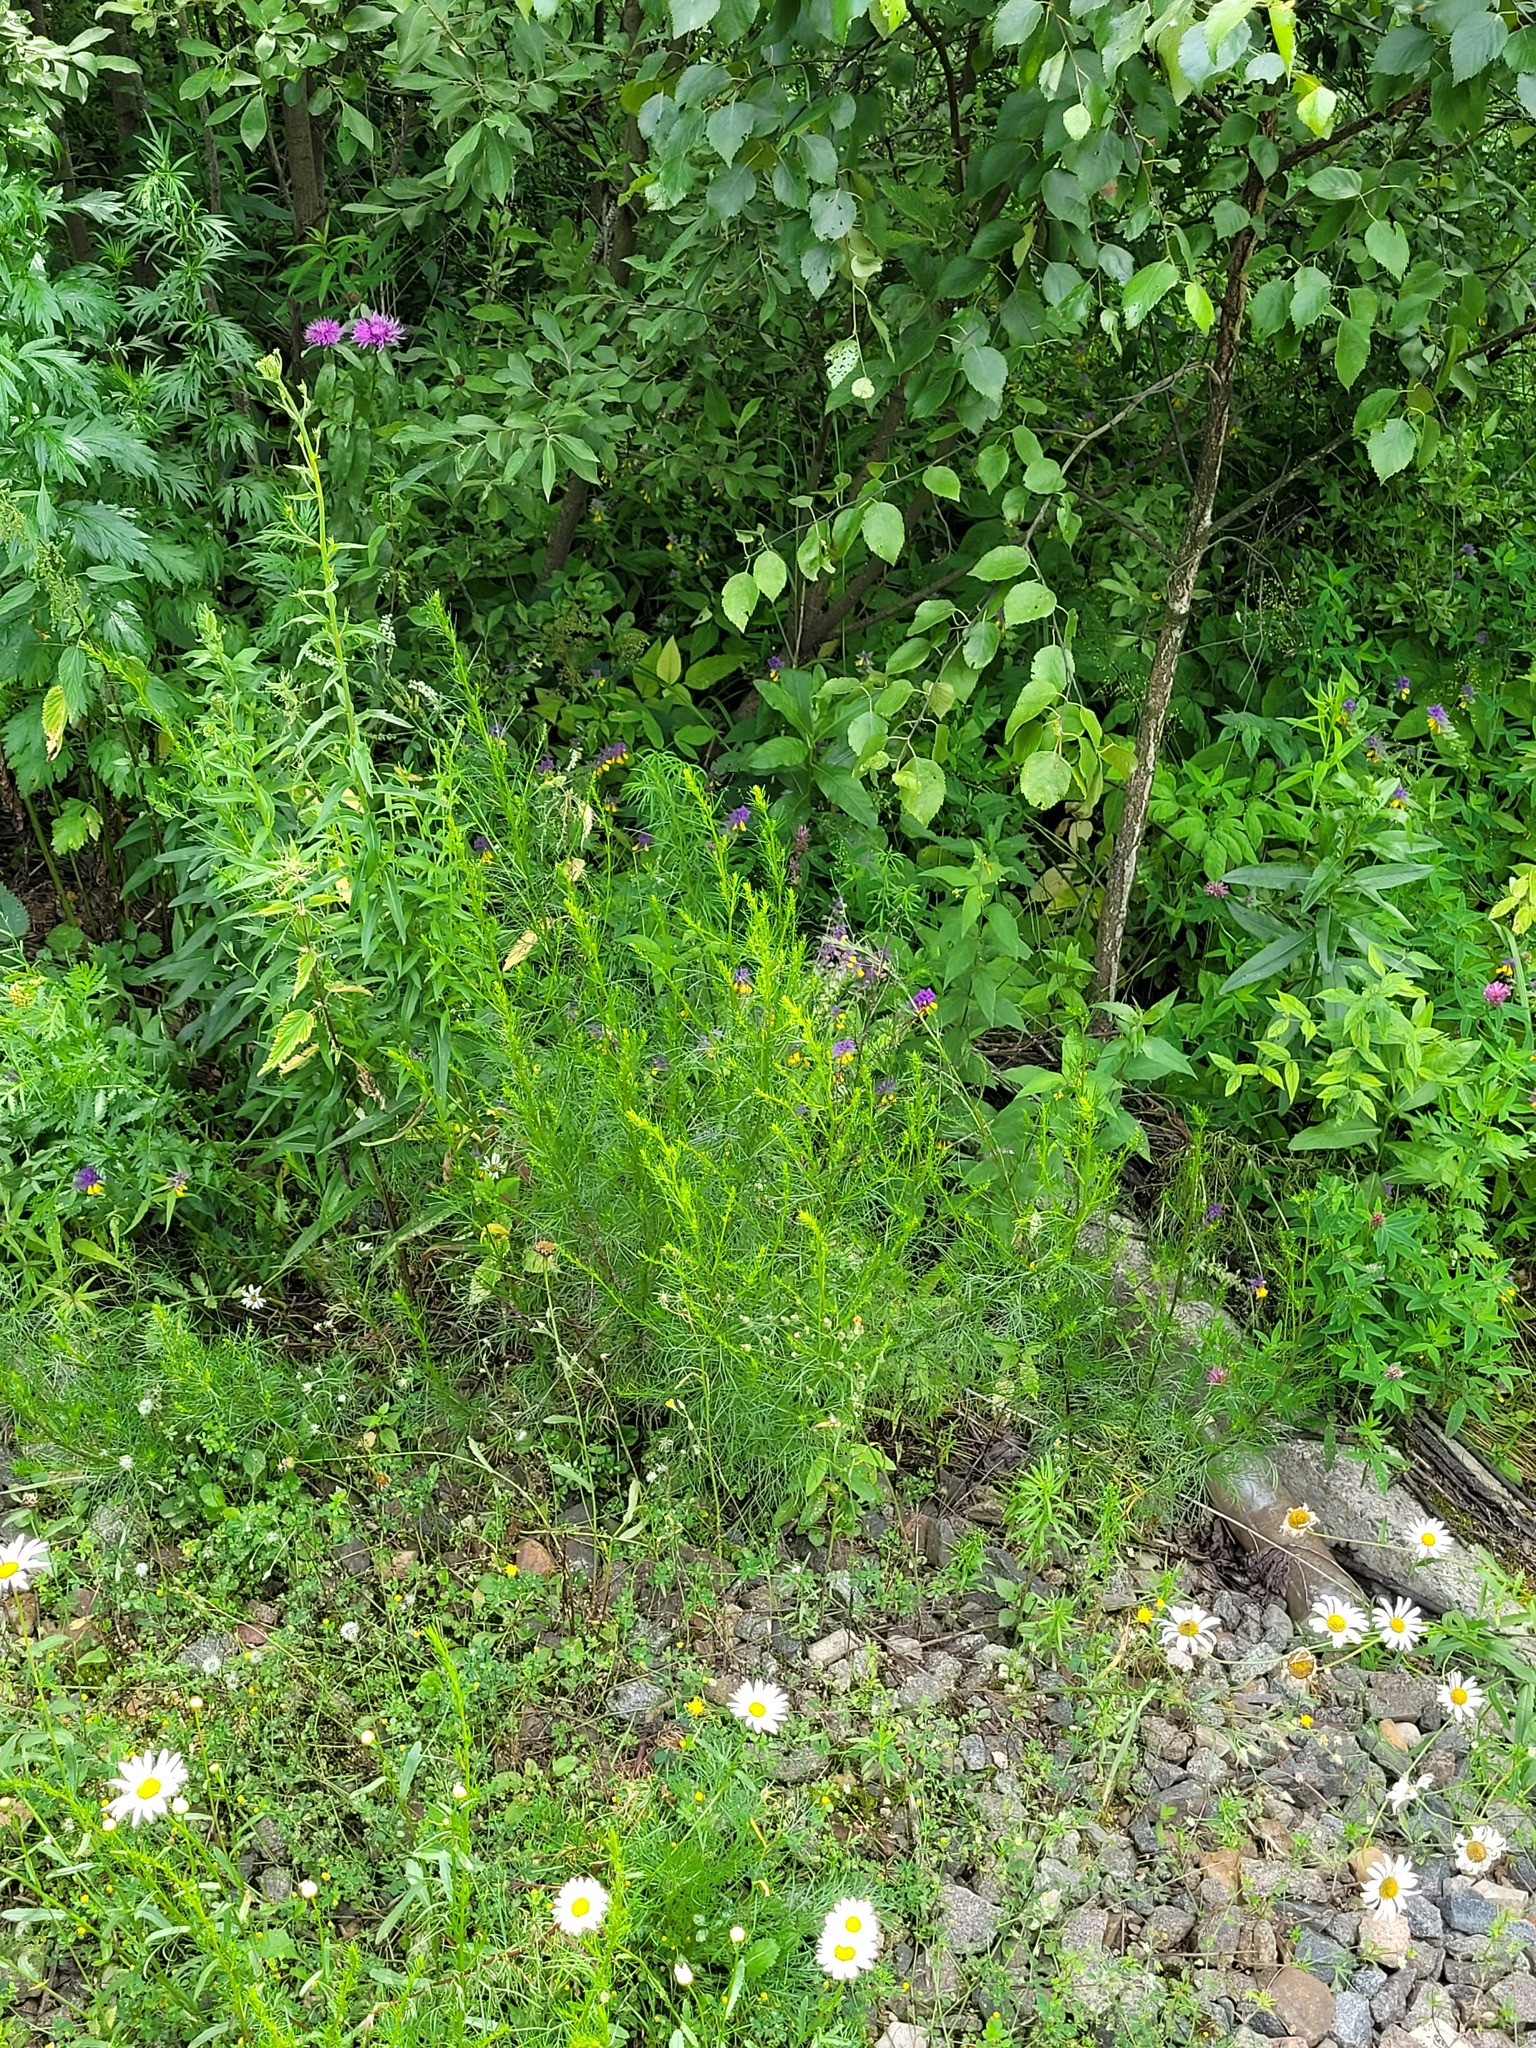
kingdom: Plantae
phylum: Tracheophyta
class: Magnoliopsida
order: Asterales
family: Asteraceae
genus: Artemisia
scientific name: Artemisia campestris
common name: Field wormwood
